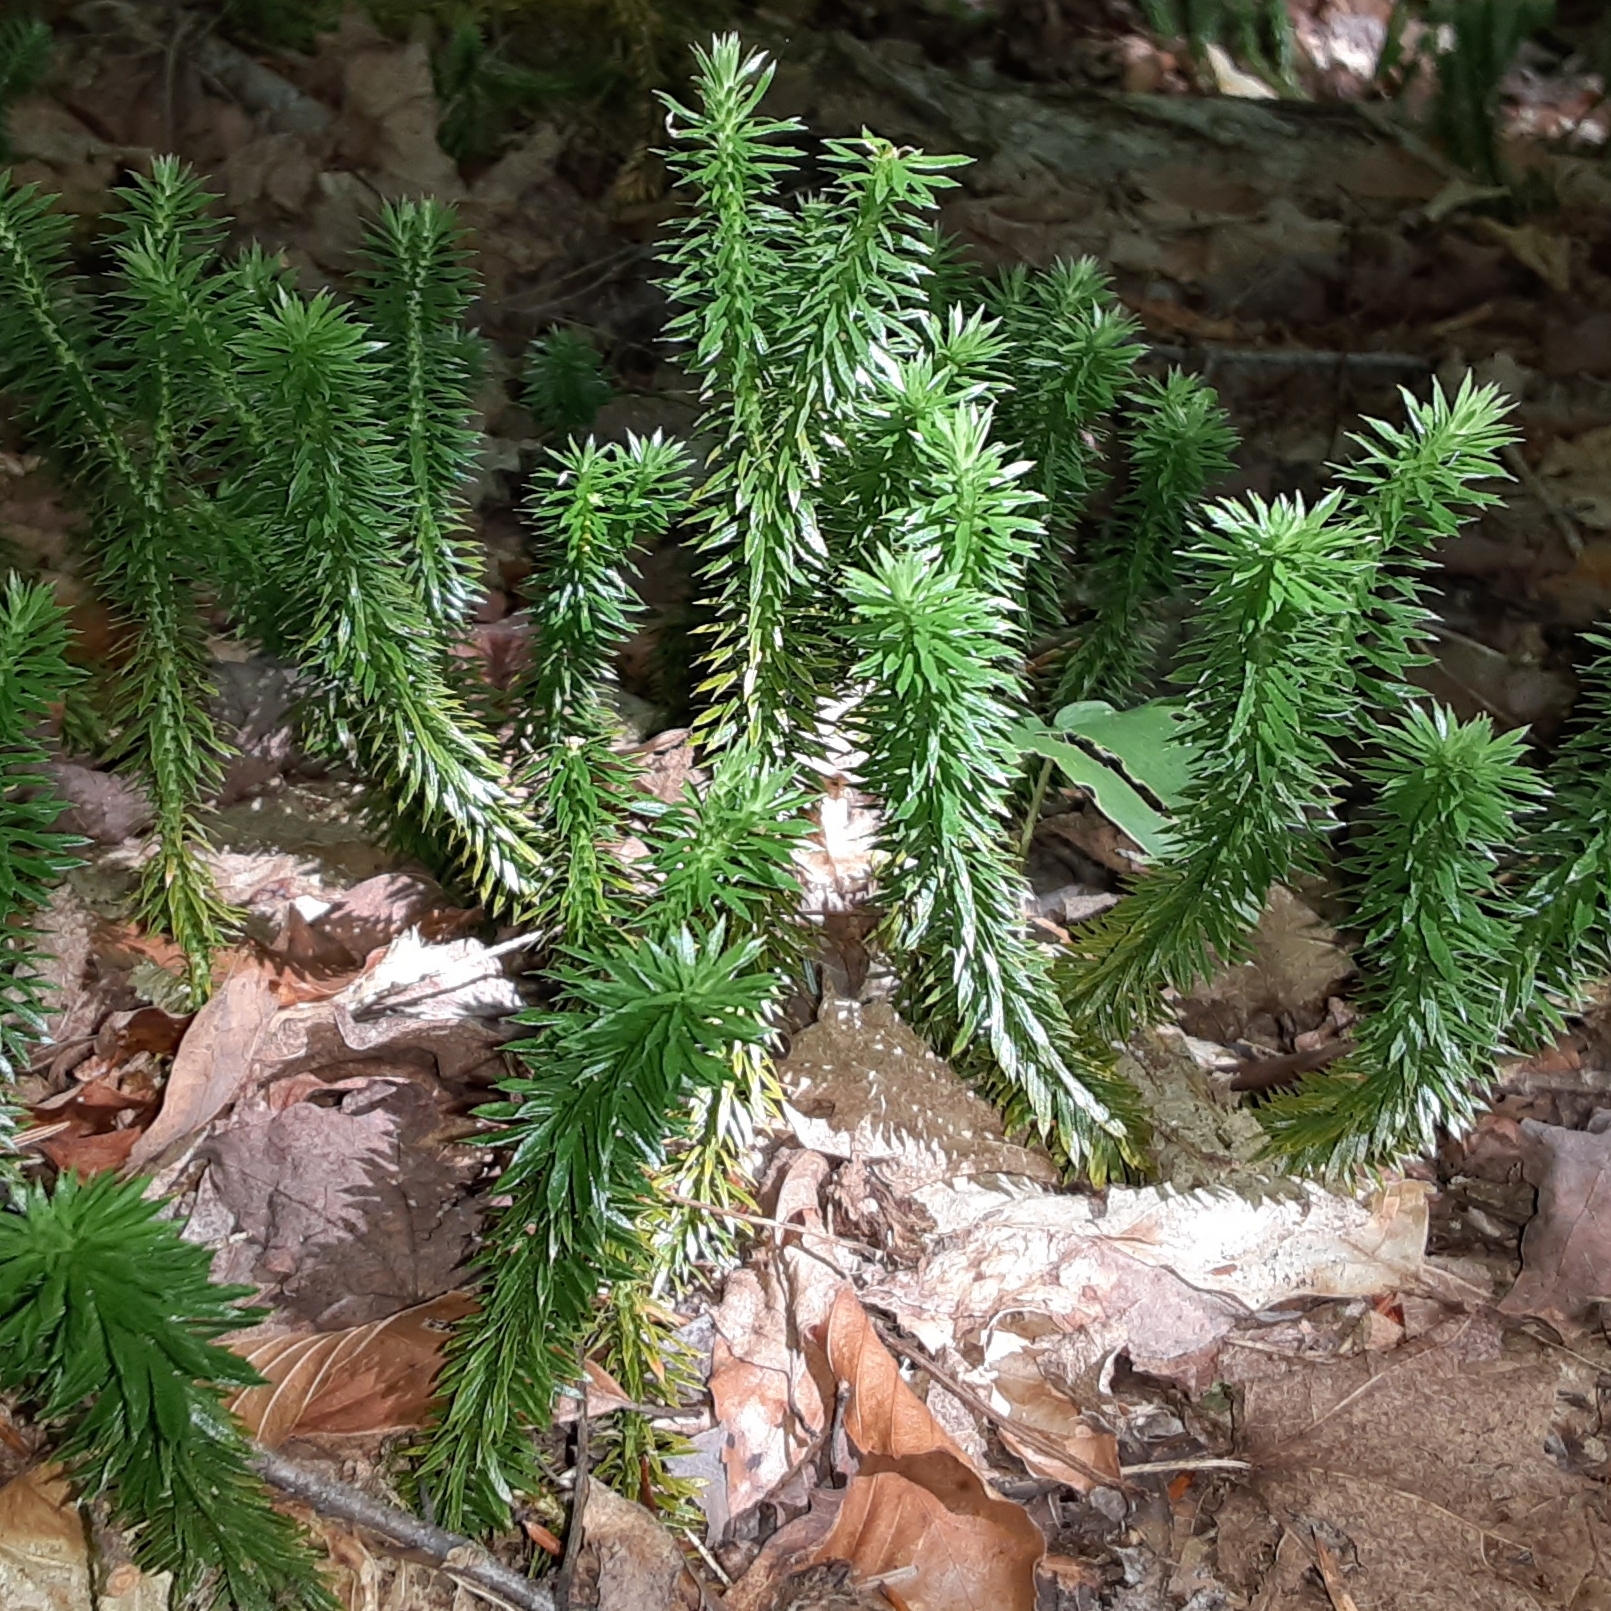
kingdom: Plantae
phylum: Tracheophyta
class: Lycopodiopsida
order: Lycopodiales
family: Lycopodiaceae
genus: Huperzia
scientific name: Huperzia lucidula
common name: Shining clubmoss
